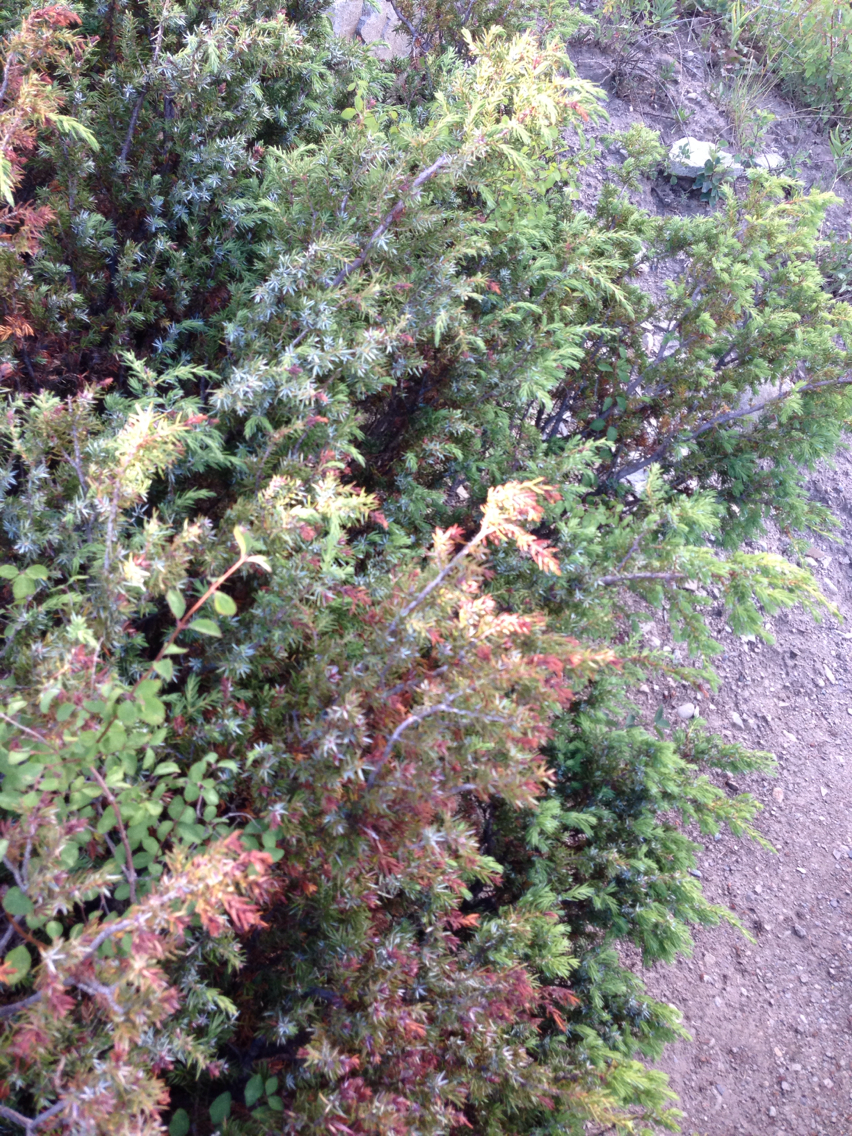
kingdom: Plantae
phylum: Tracheophyta
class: Pinopsida
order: Pinales
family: Cupressaceae
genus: Juniperus
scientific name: Juniperus communis
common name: Common juniper
